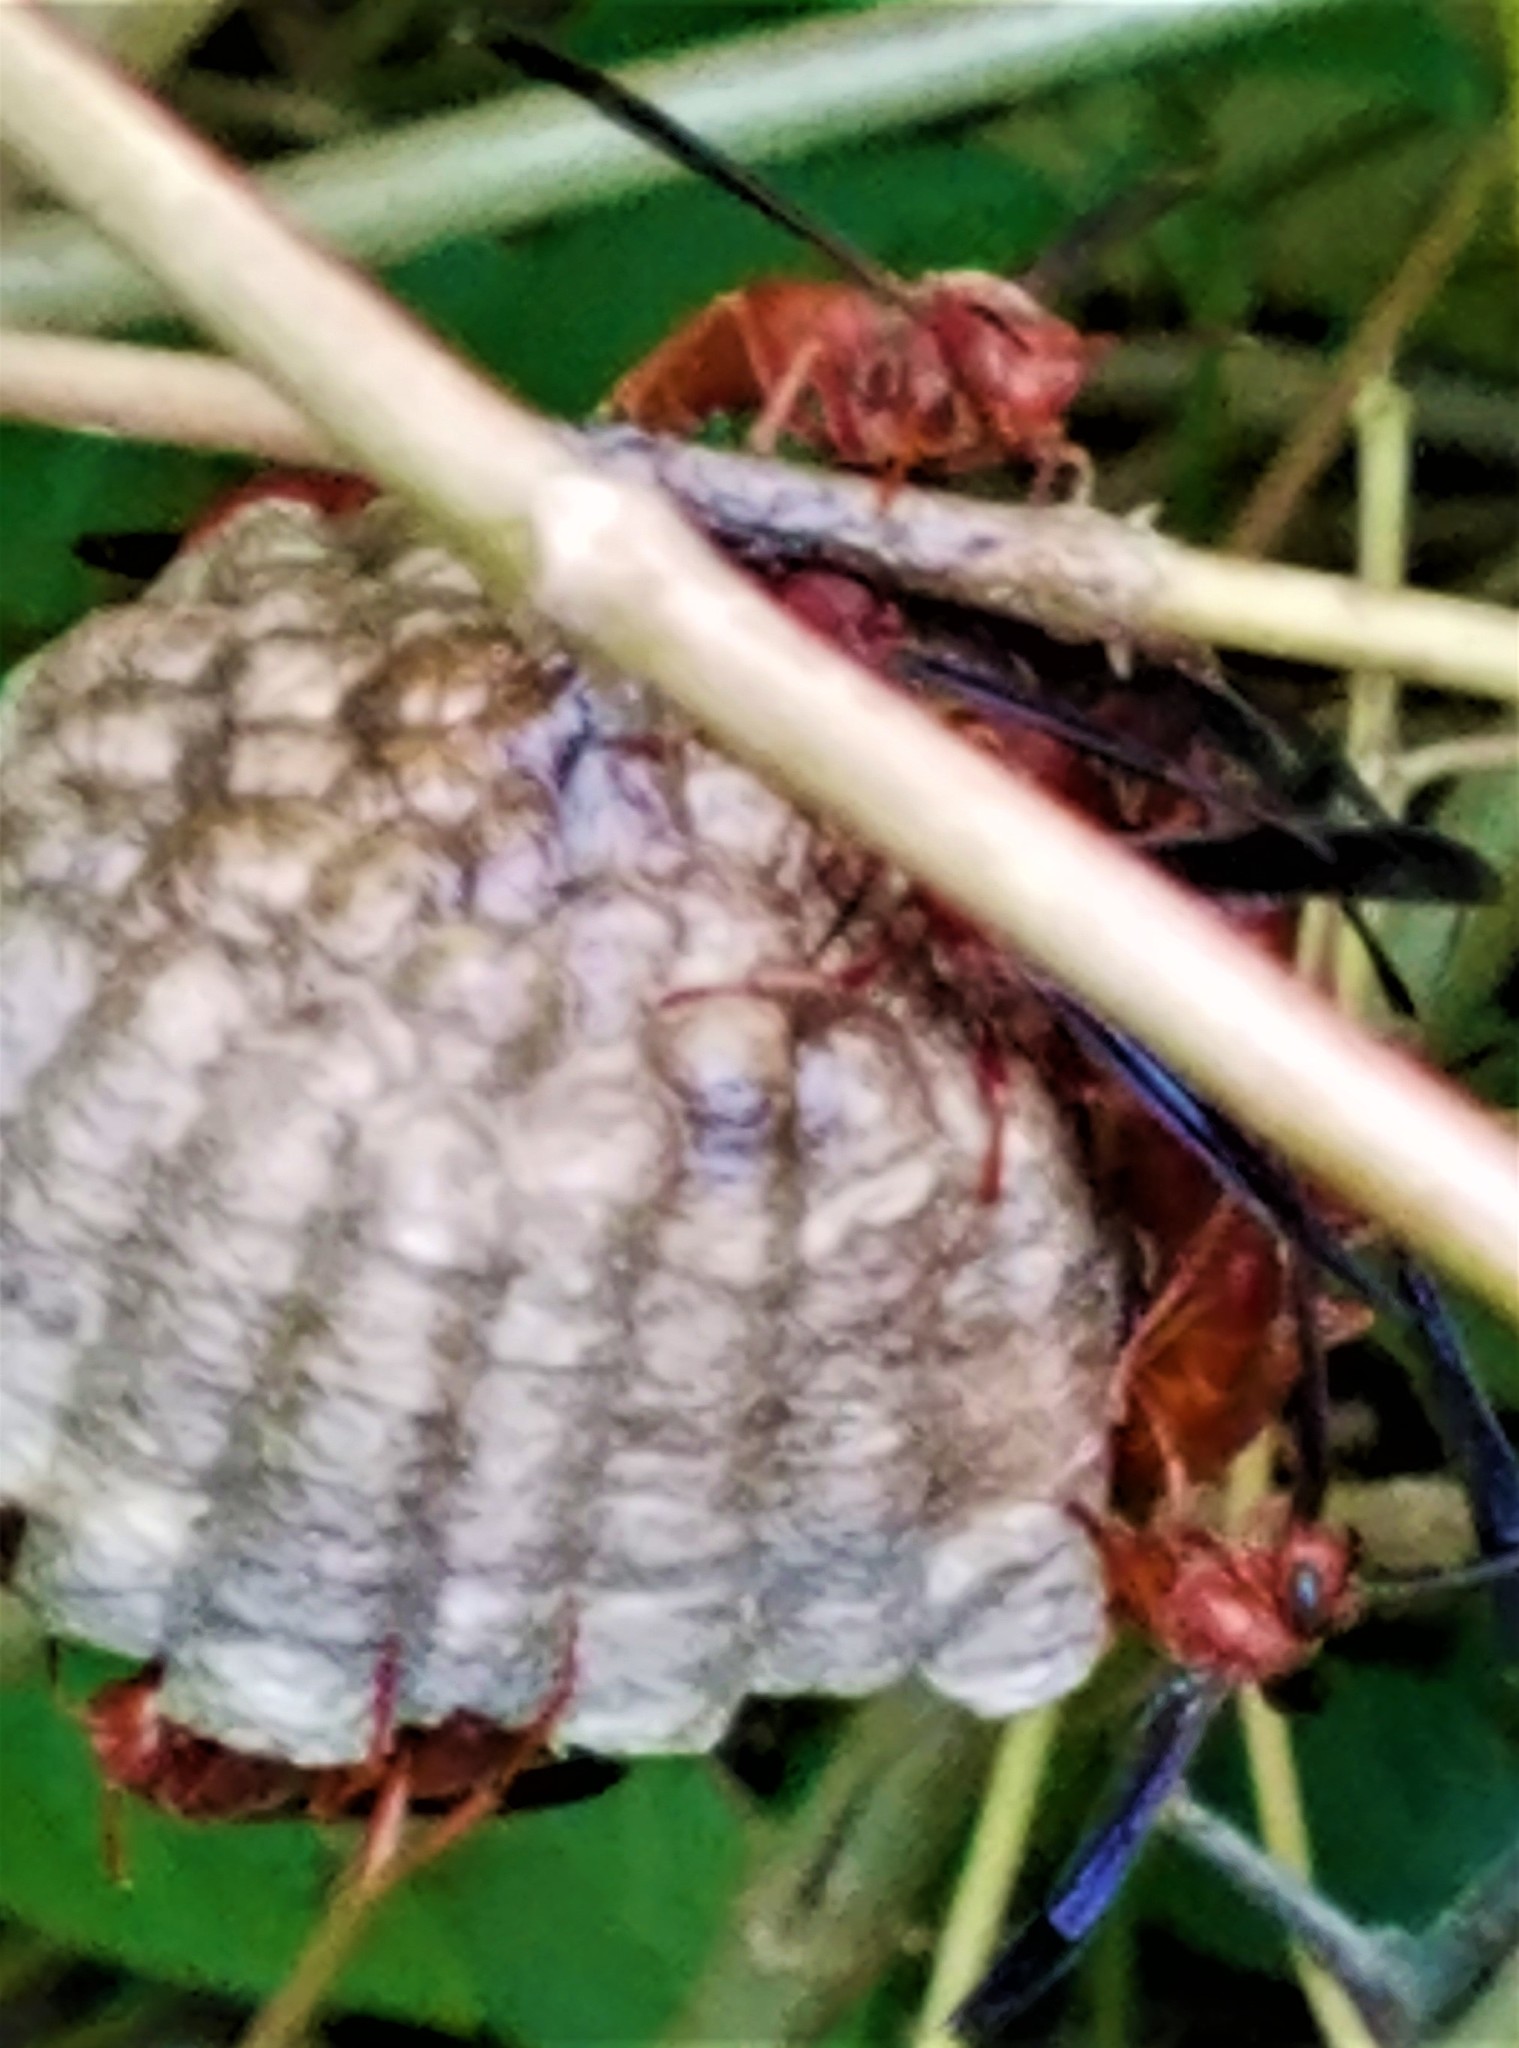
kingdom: Animalia
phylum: Arthropoda
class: Insecta
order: Hymenoptera
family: Eumenidae
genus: Polistes
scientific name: Polistes carolina
